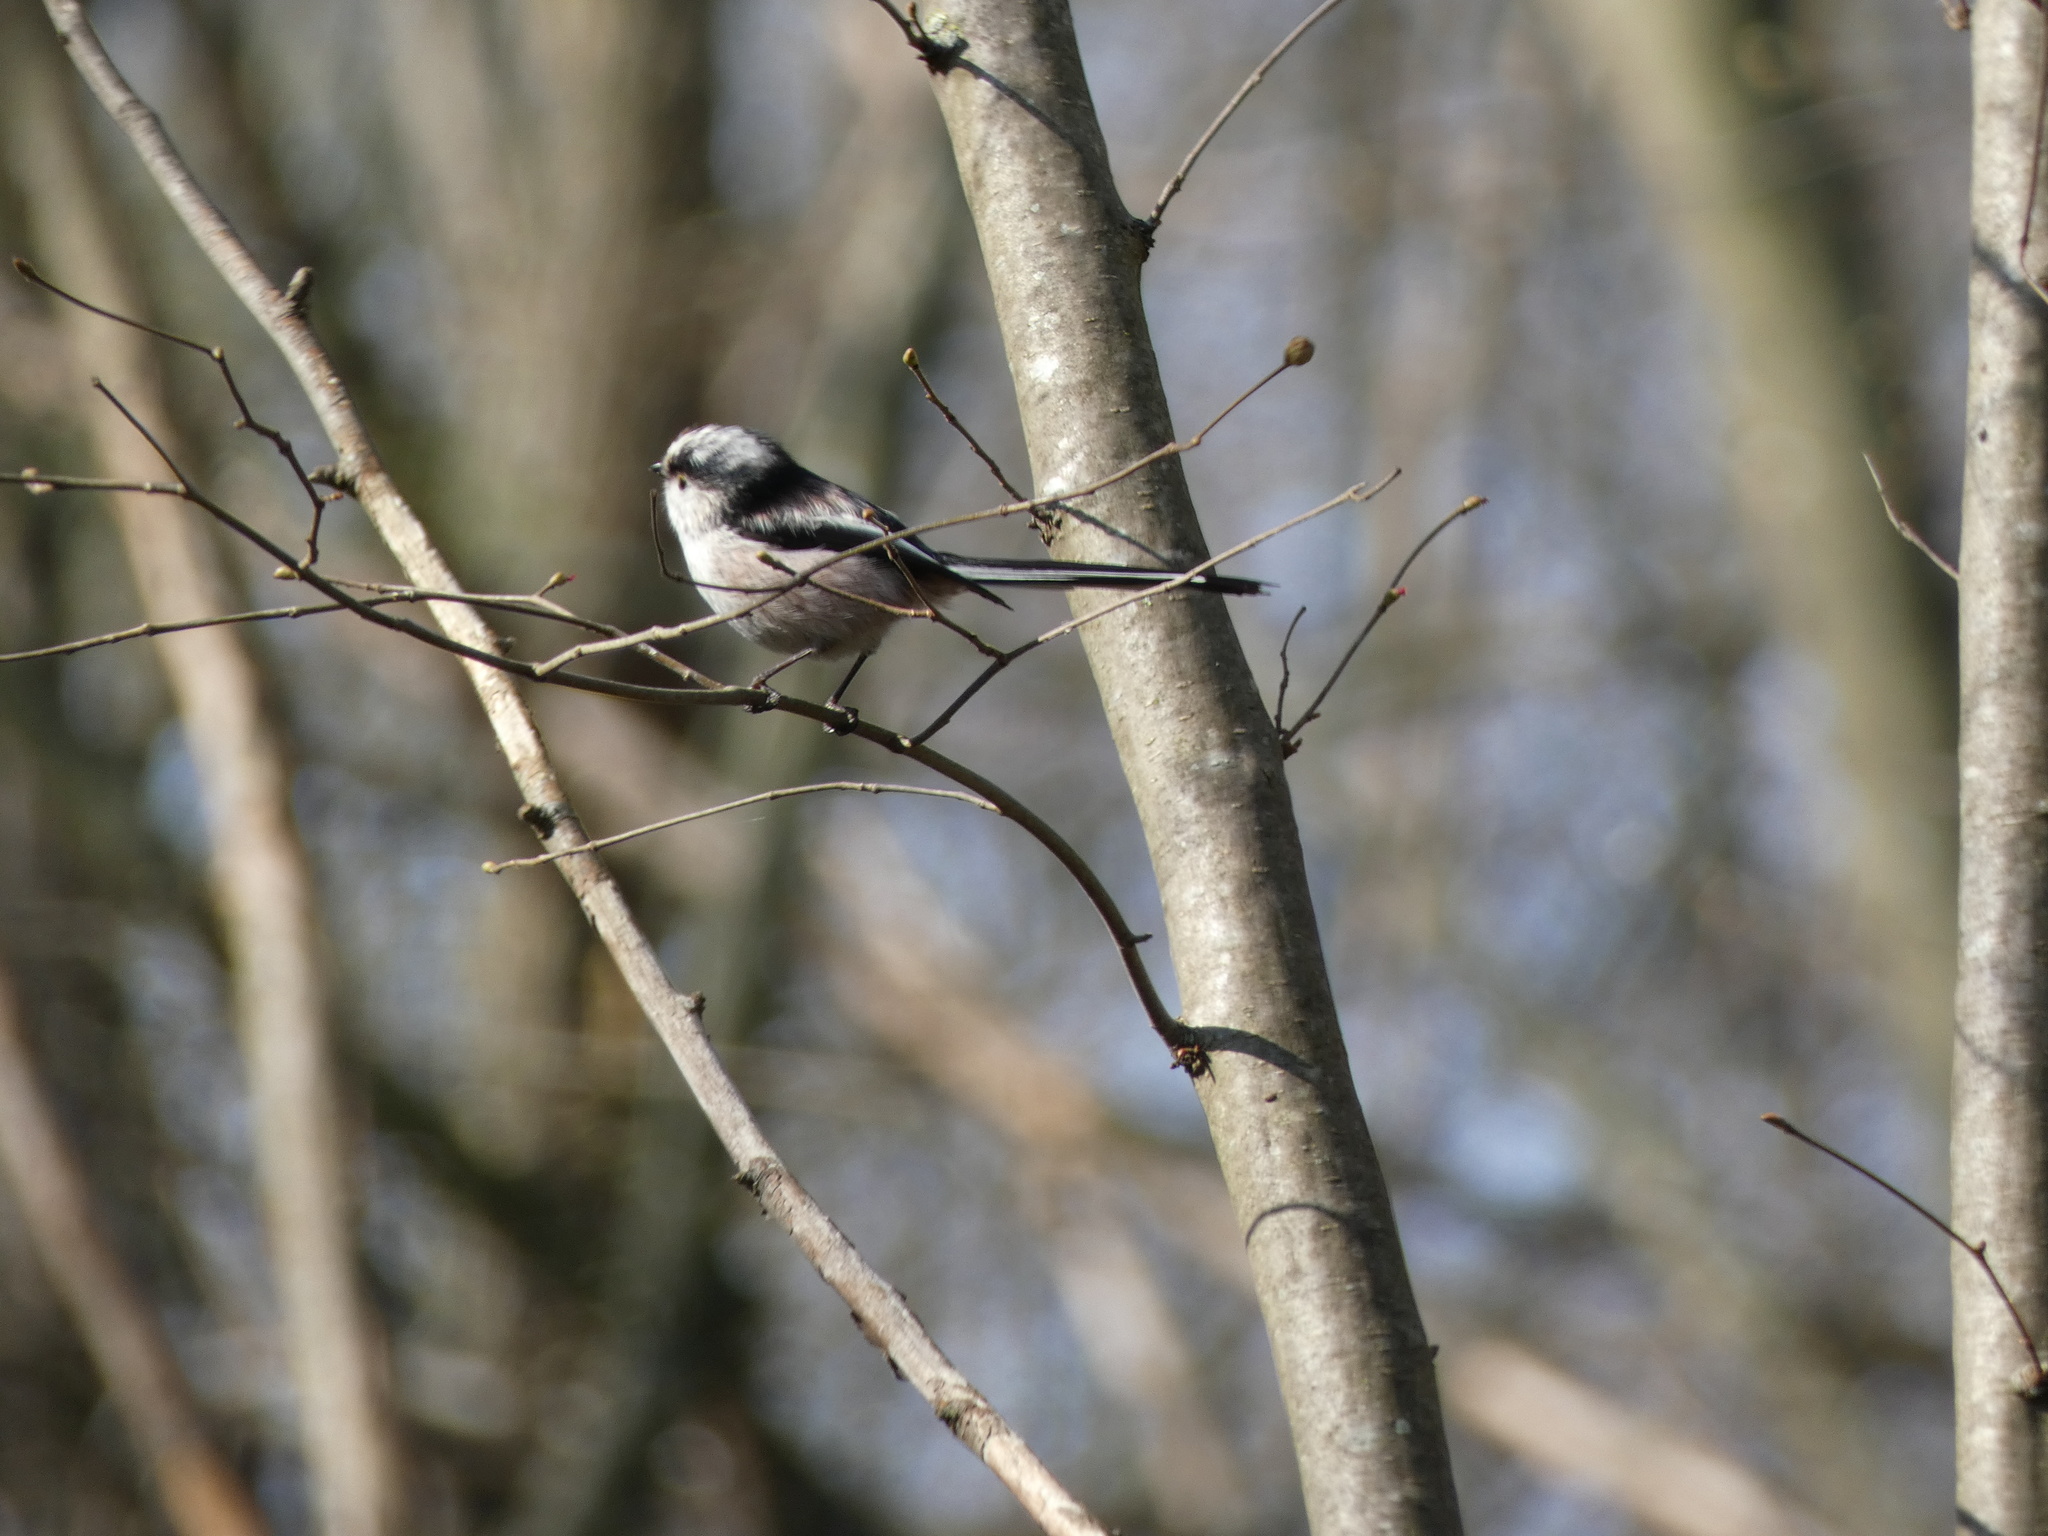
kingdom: Animalia
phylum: Chordata
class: Aves
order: Passeriformes
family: Aegithalidae
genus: Aegithalos
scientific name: Aegithalos caudatus
